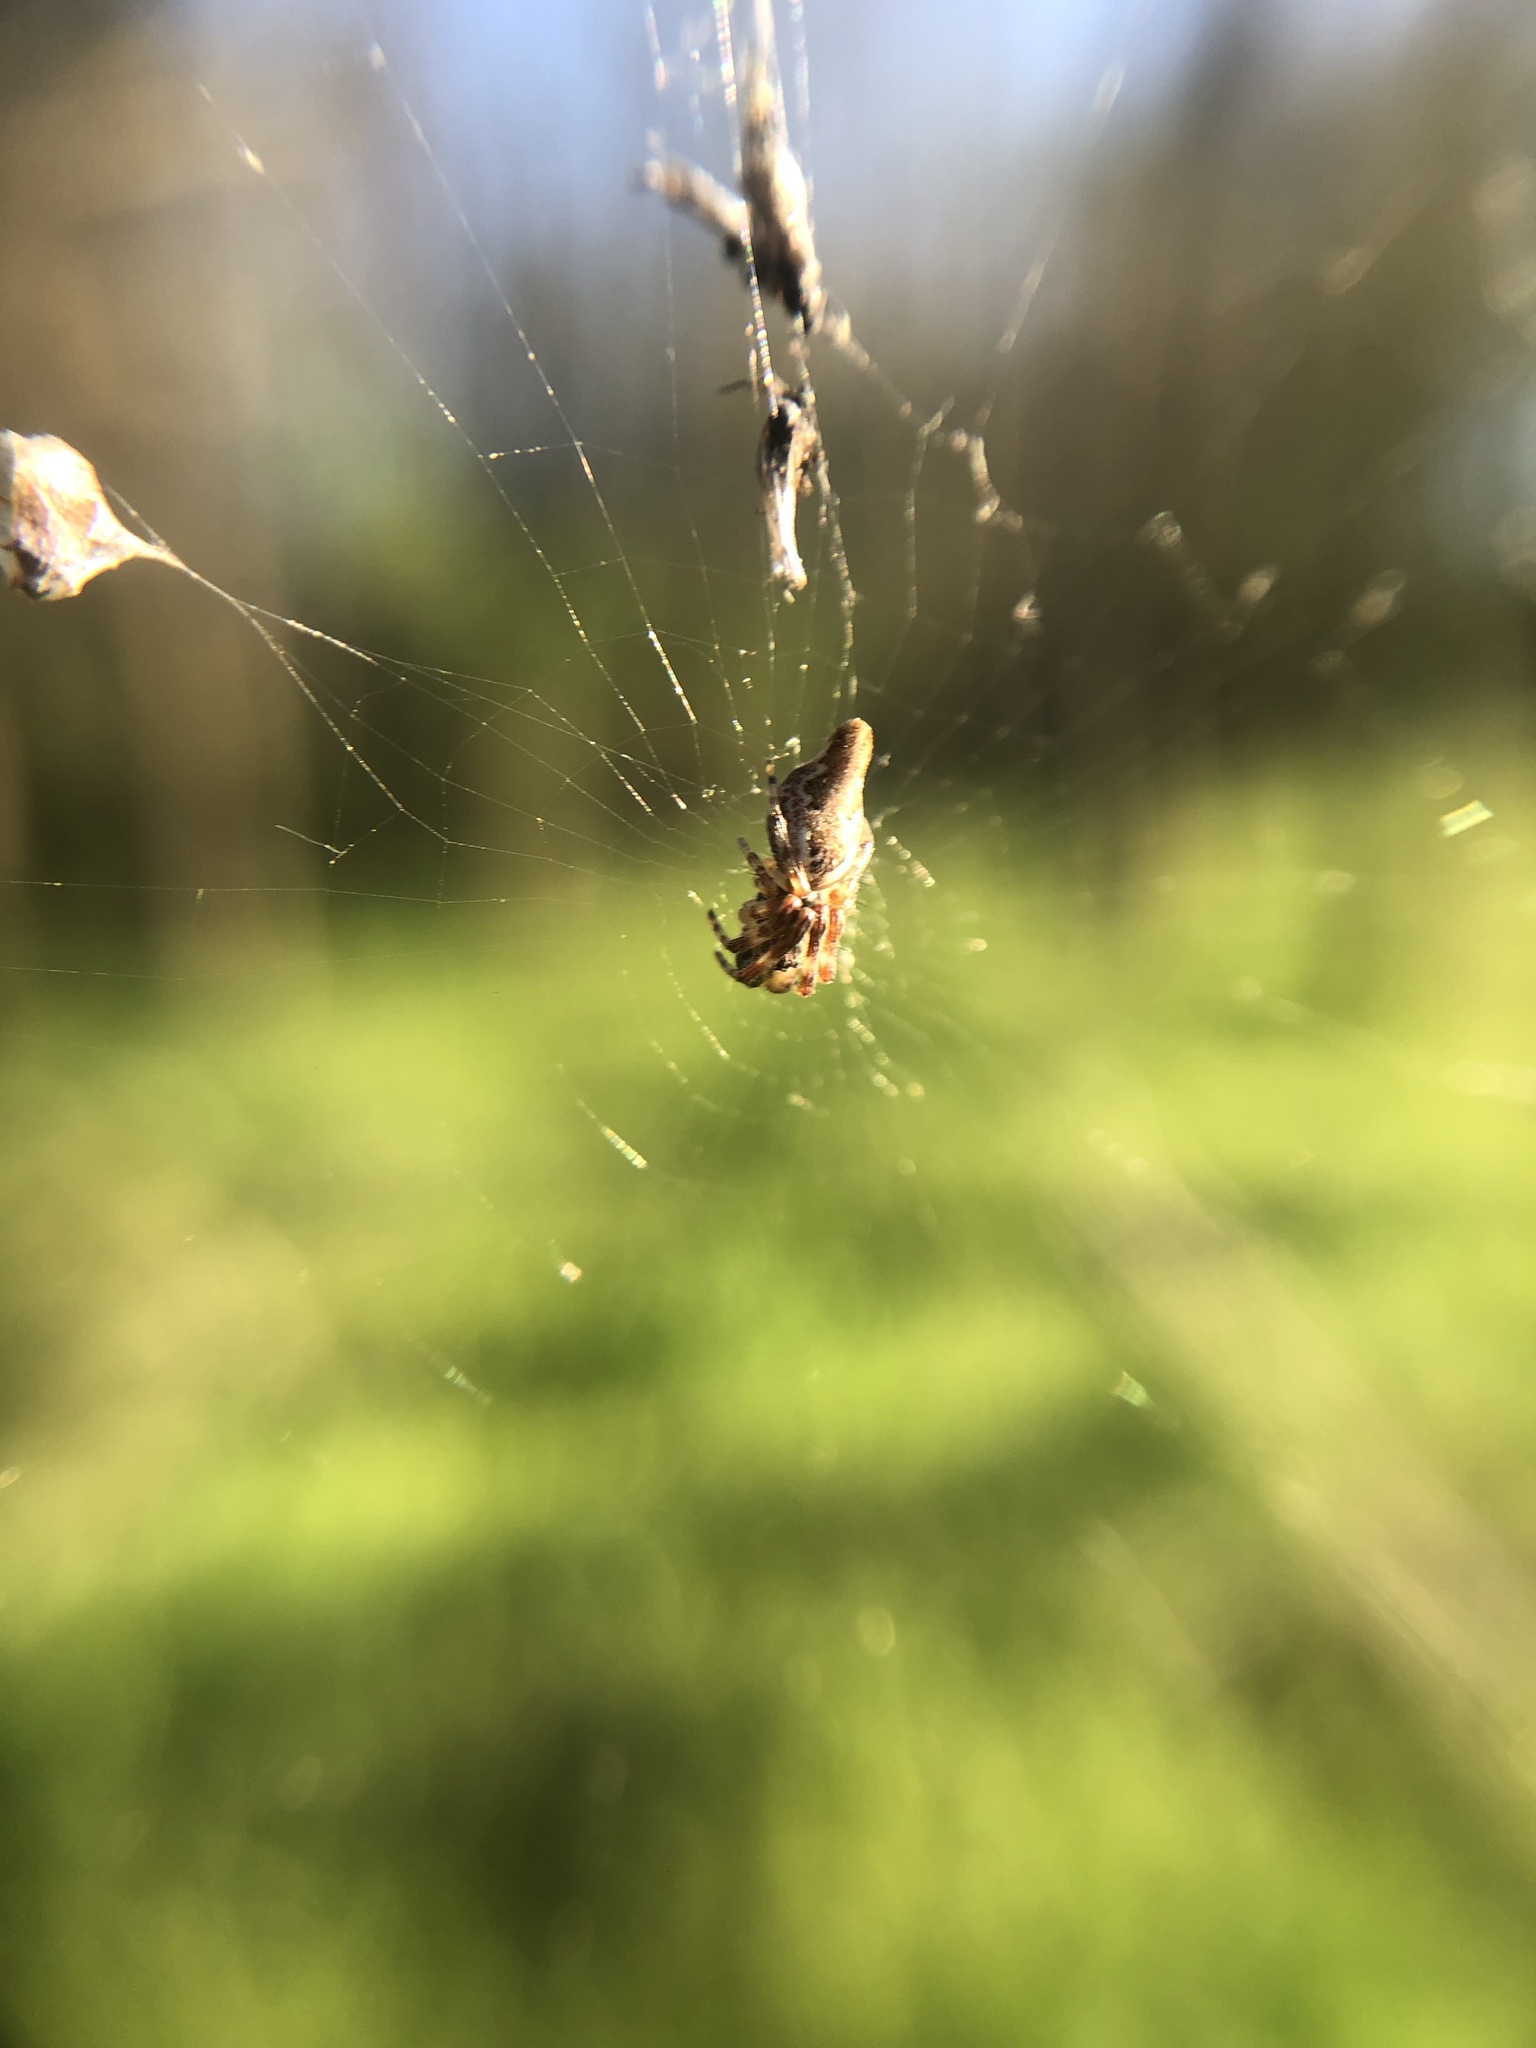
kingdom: Animalia
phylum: Arthropoda
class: Arachnida
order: Araneae
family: Araneidae
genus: Cyclosa
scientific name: Cyclosa conica
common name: Conical trashline orbweaver
